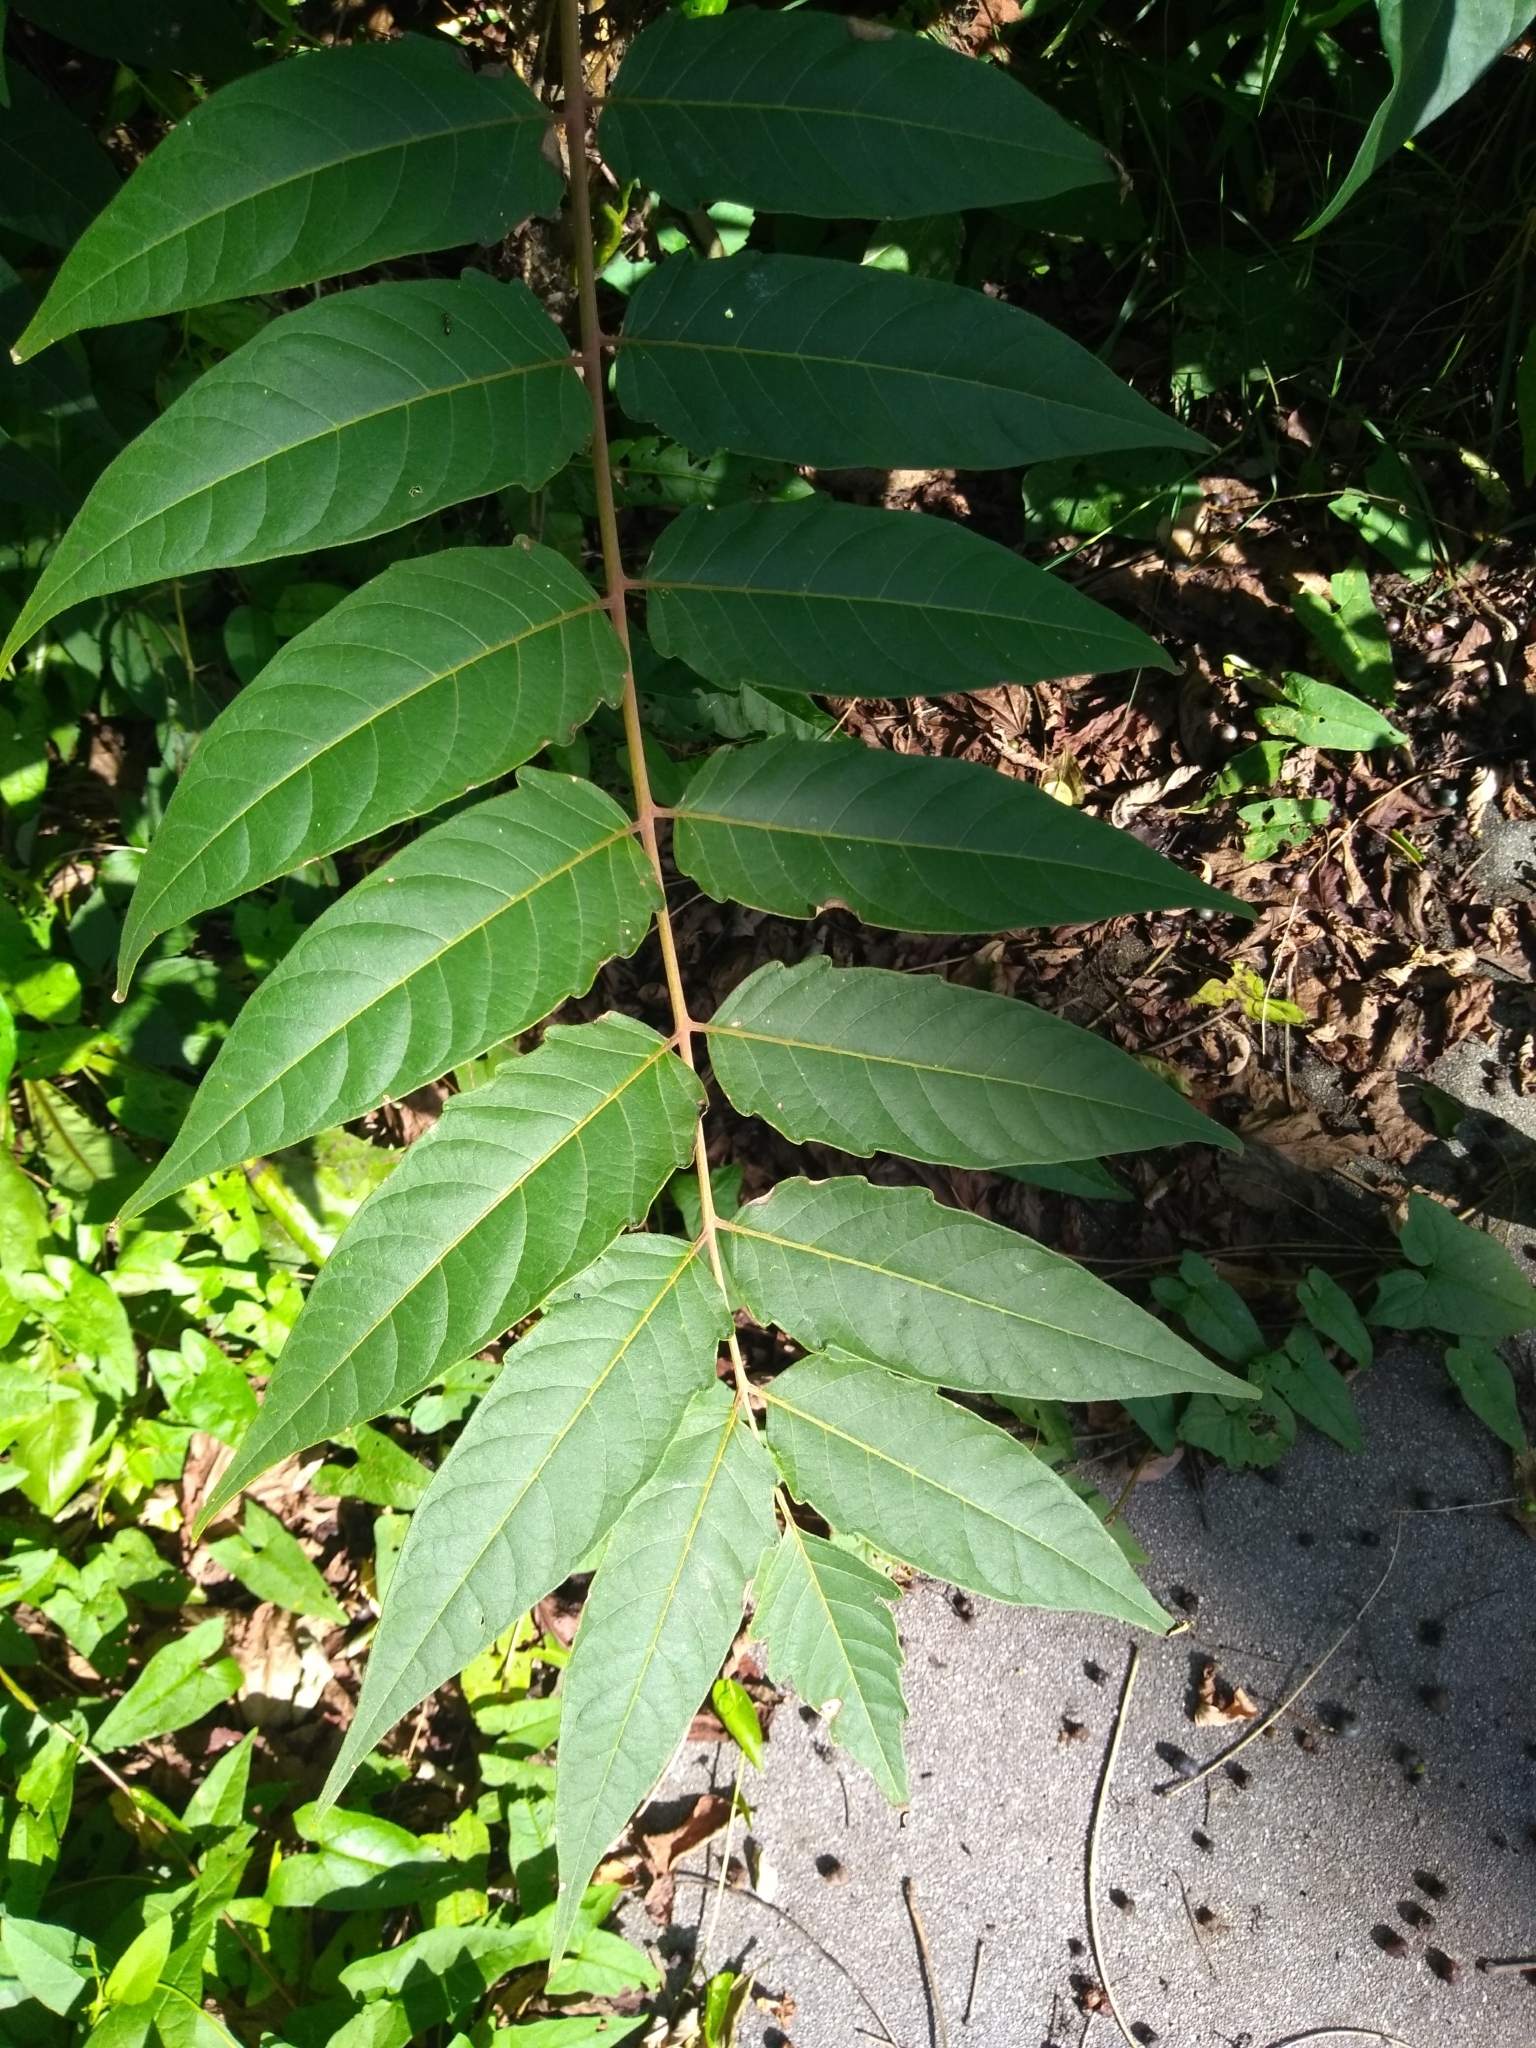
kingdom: Plantae
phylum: Tracheophyta
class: Magnoliopsida
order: Sapindales
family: Simaroubaceae
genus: Ailanthus
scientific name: Ailanthus altissima
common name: Tree-of-heaven
